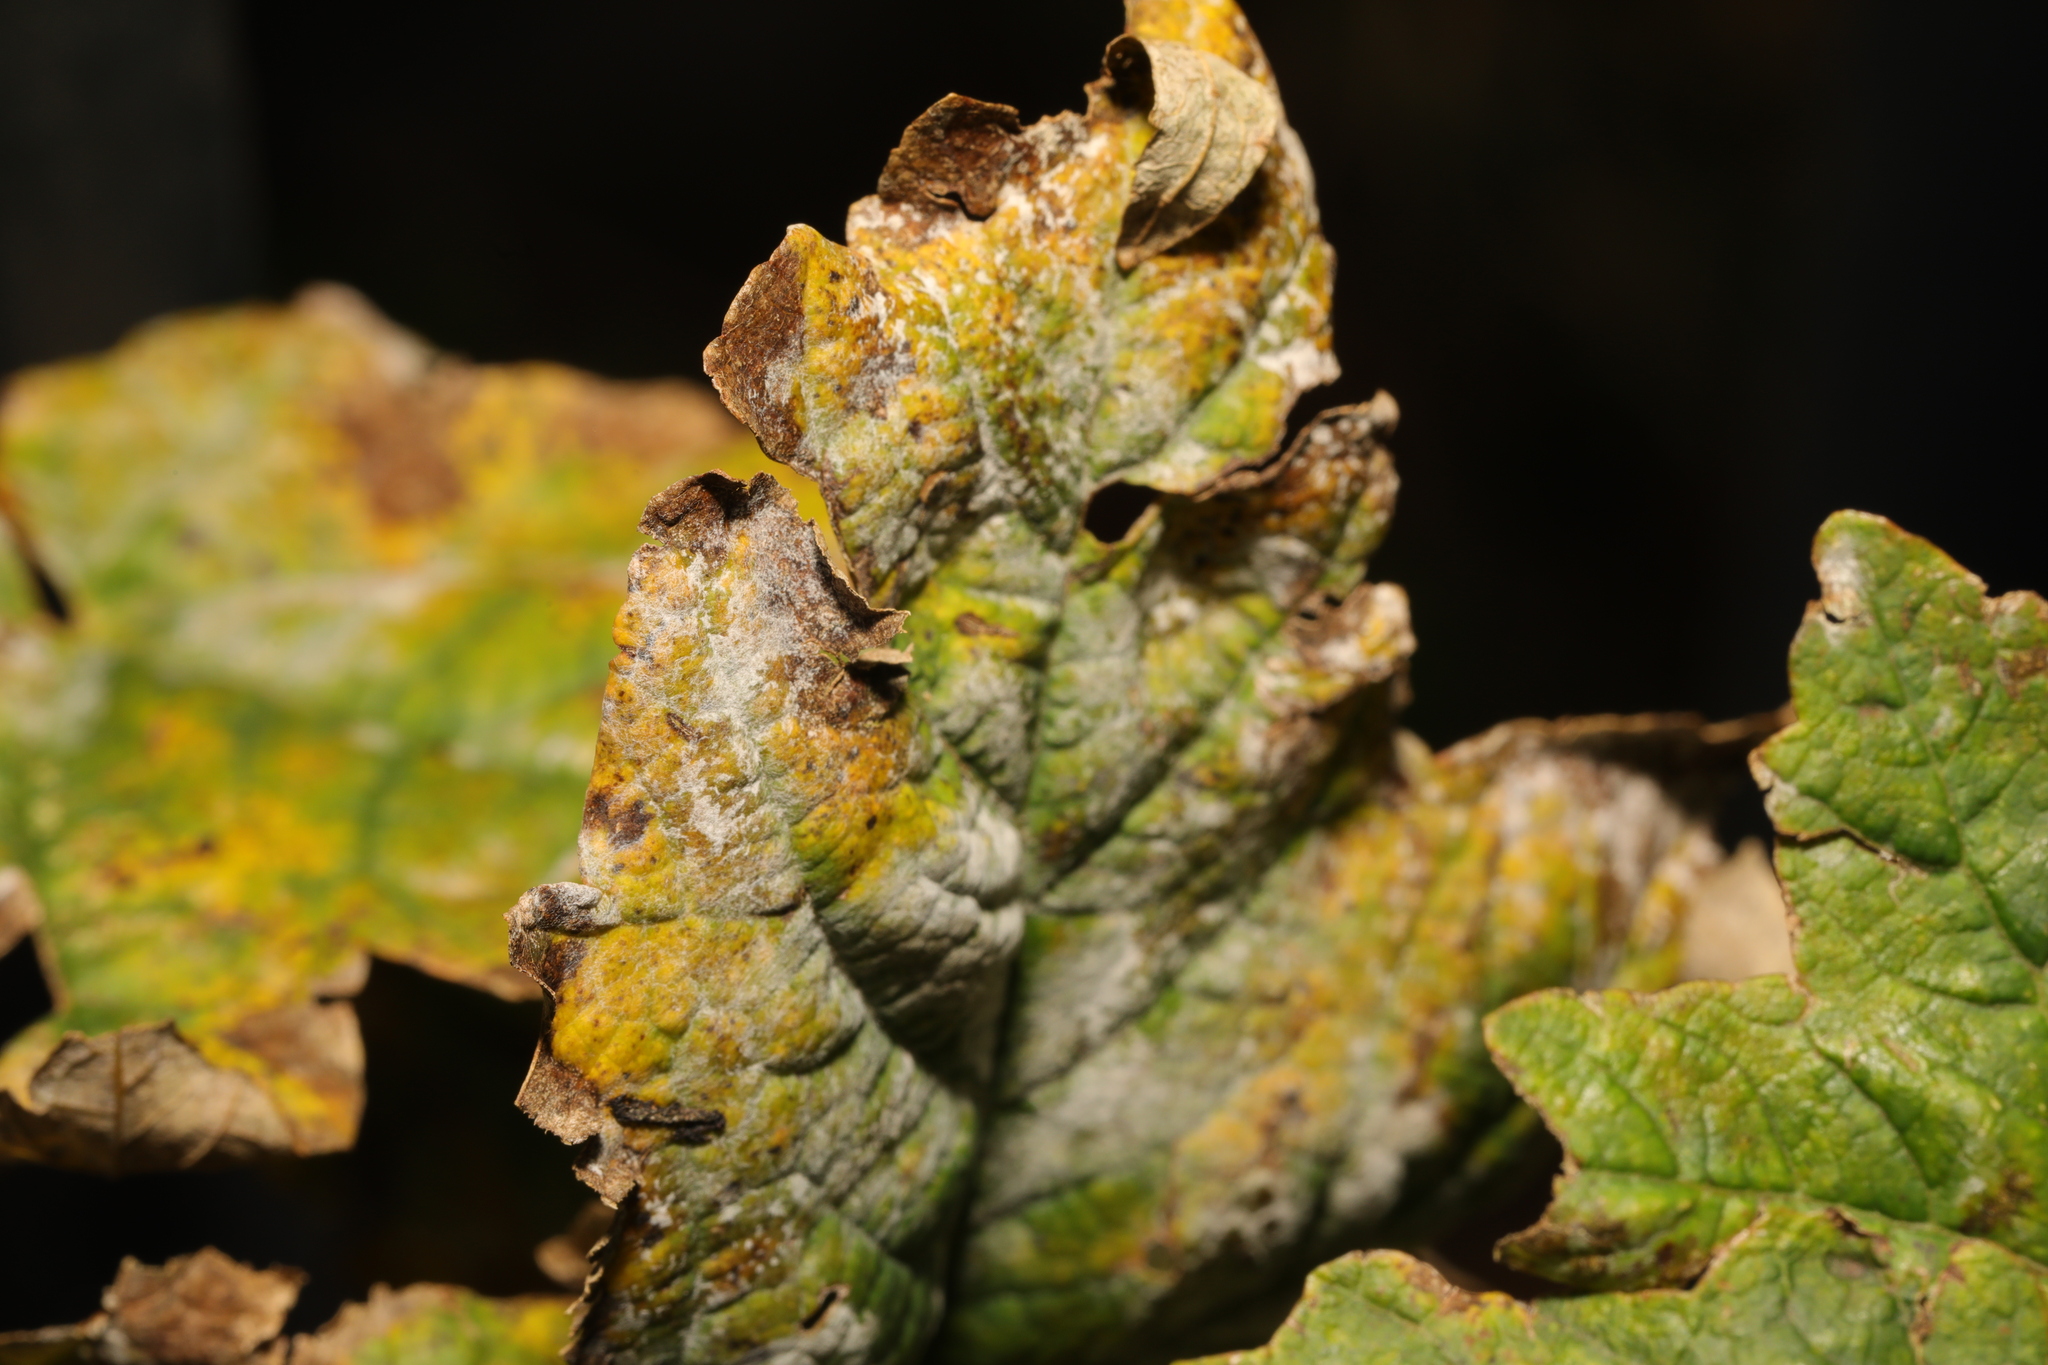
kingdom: Fungi
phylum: Ascomycota
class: Leotiomycetes
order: Helotiales
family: Erysiphaceae
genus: Sawadaea
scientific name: Sawadaea bicornis
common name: Maple mildew
